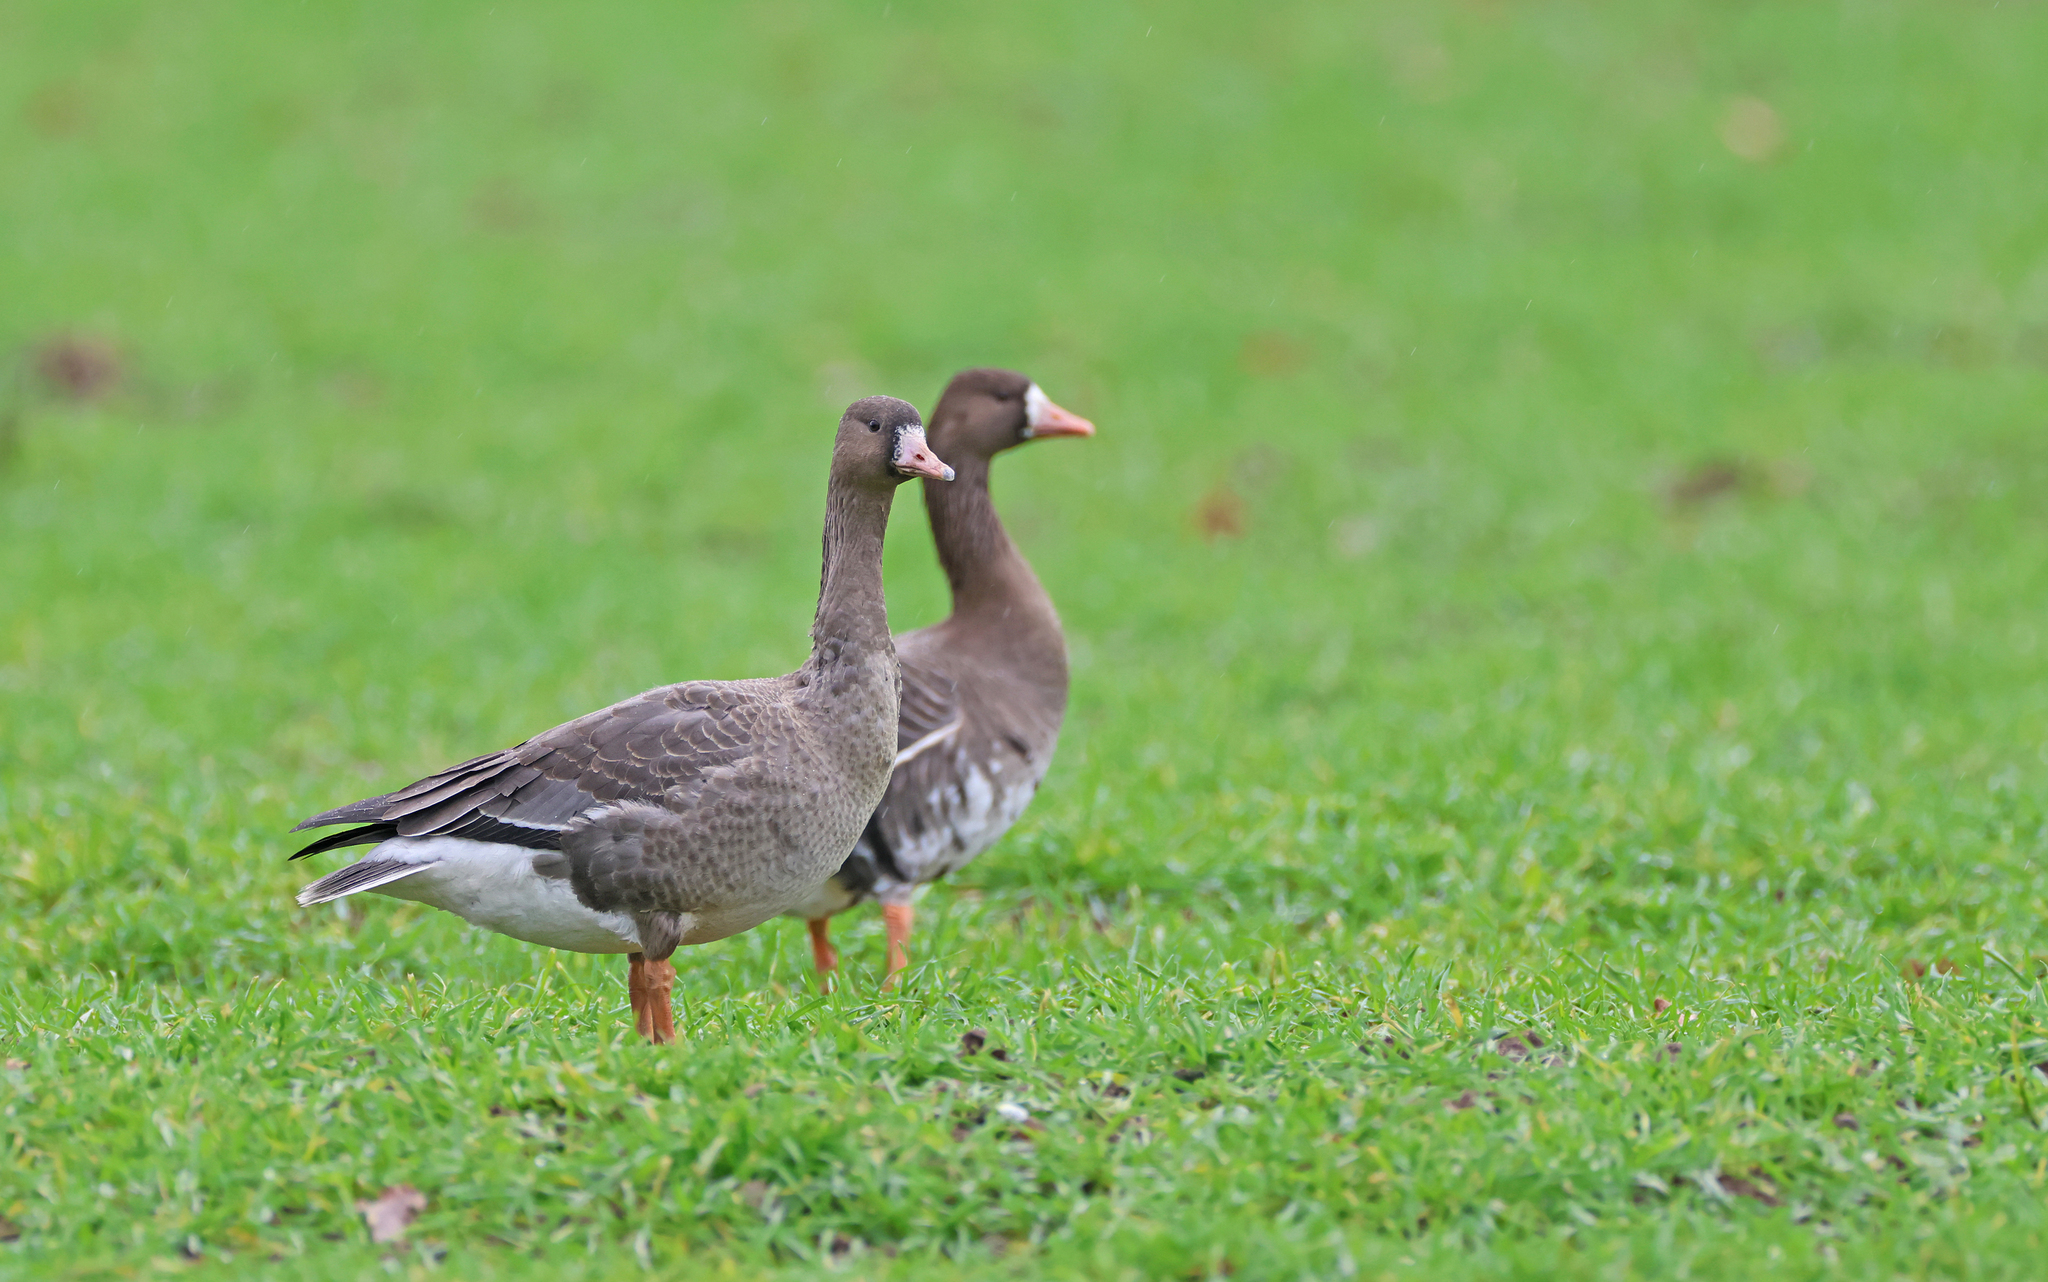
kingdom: Animalia
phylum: Chordata
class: Aves
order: Anseriformes
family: Anatidae
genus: Anser
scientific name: Anser albifrons
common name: Greater white-fronted goose
